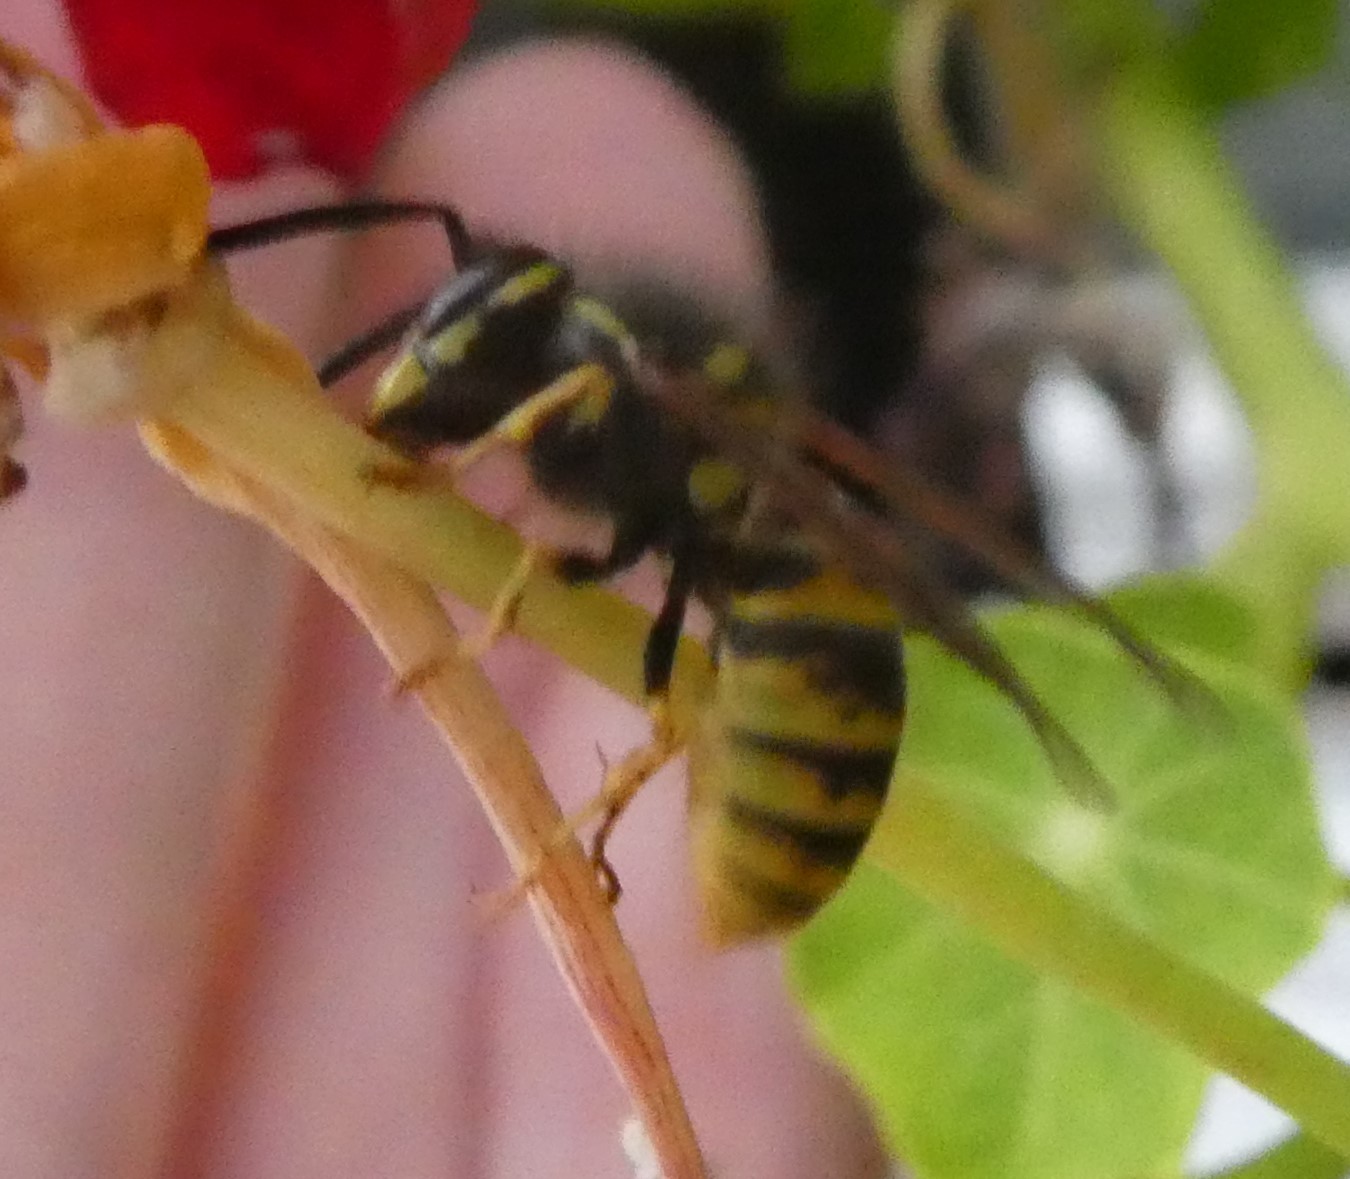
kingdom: Animalia
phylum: Arthropoda
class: Insecta
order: Hymenoptera
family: Vespidae
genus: Vespula
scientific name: Vespula vulgaris
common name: Common wasp
